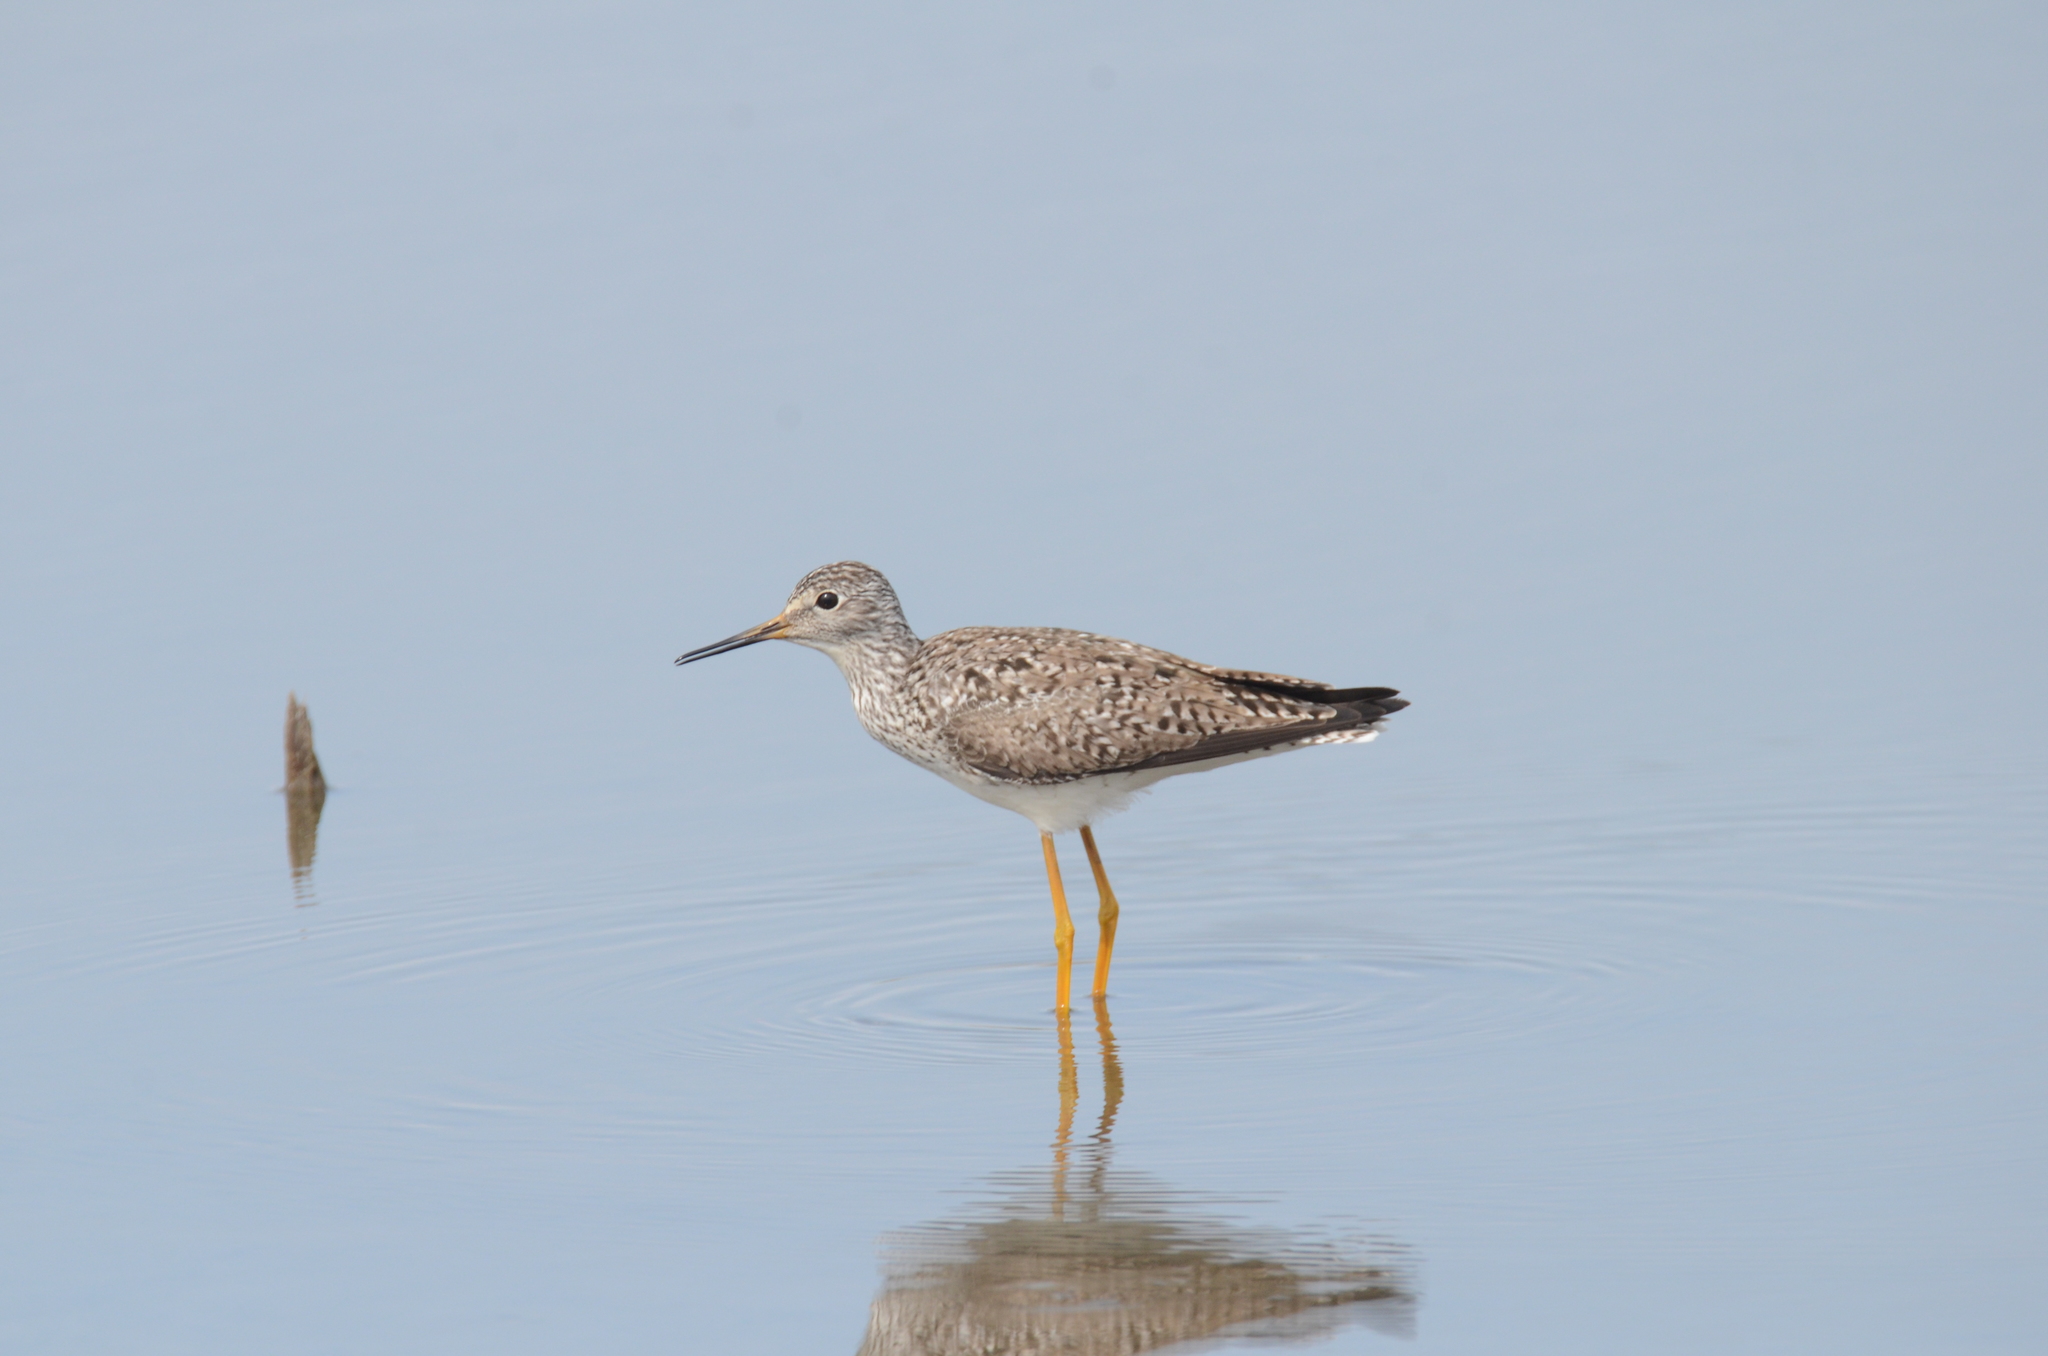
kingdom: Animalia
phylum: Chordata
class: Aves
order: Charadriiformes
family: Scolopacidae
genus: Tringa
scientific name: Tringa flavipes
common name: Lesser yellowlegs
